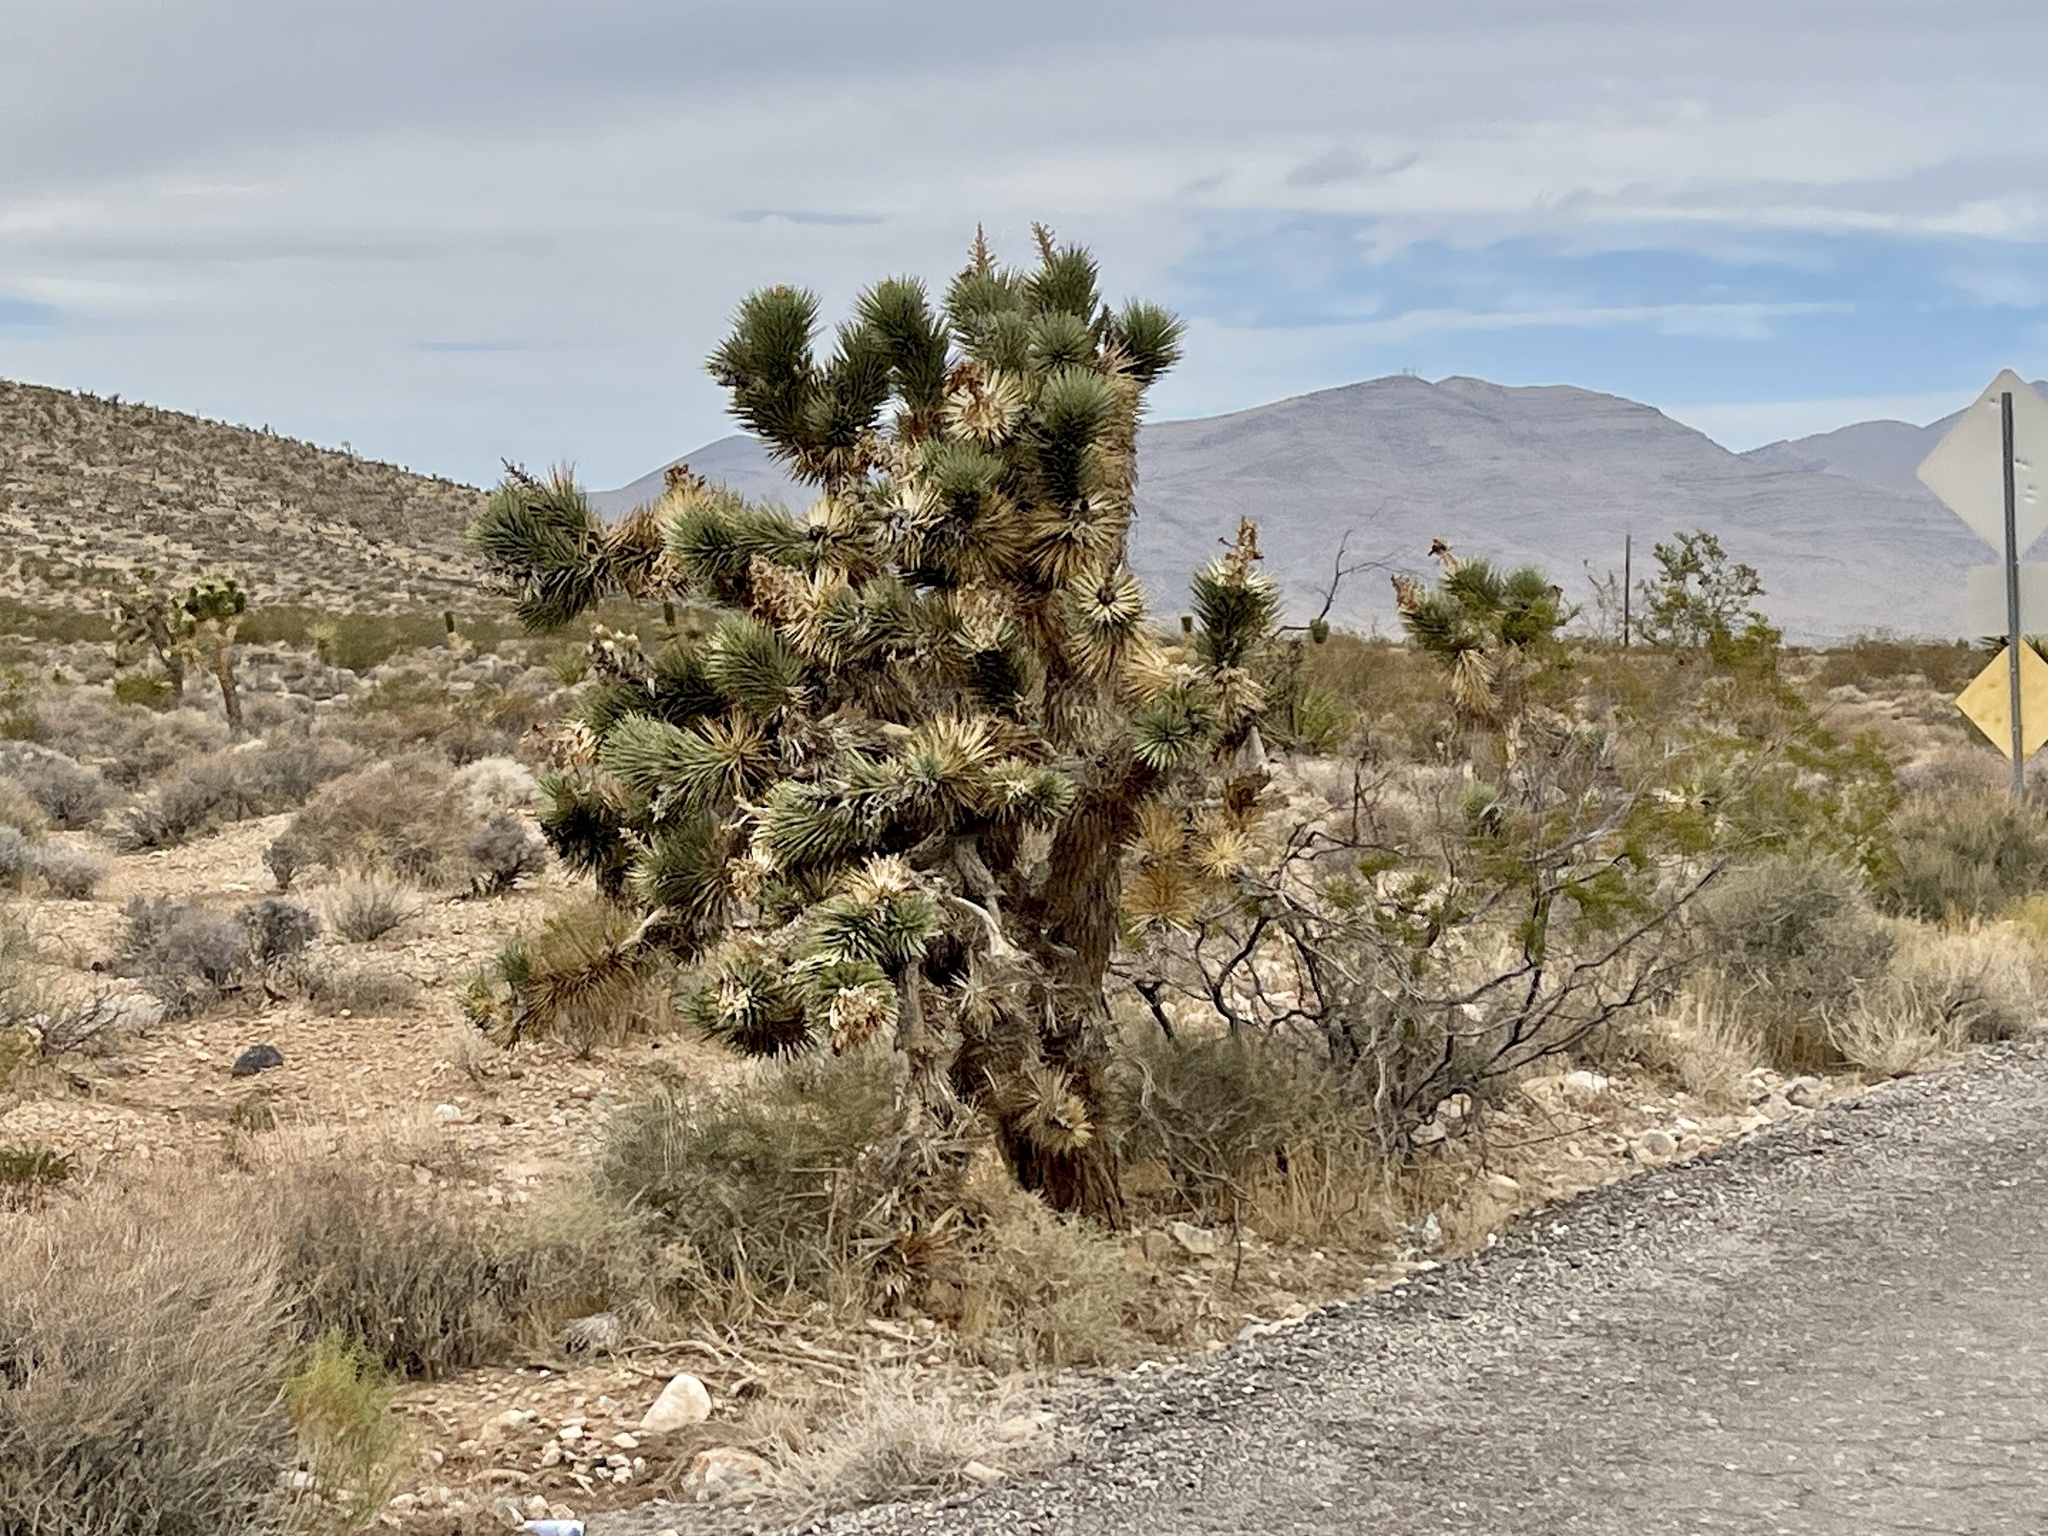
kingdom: Plantae
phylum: Tracheophyta
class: Liliopsida
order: Asparagales
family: Asparagaceae
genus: Yucca
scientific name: Yucca brevifolia
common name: Joshua tree
